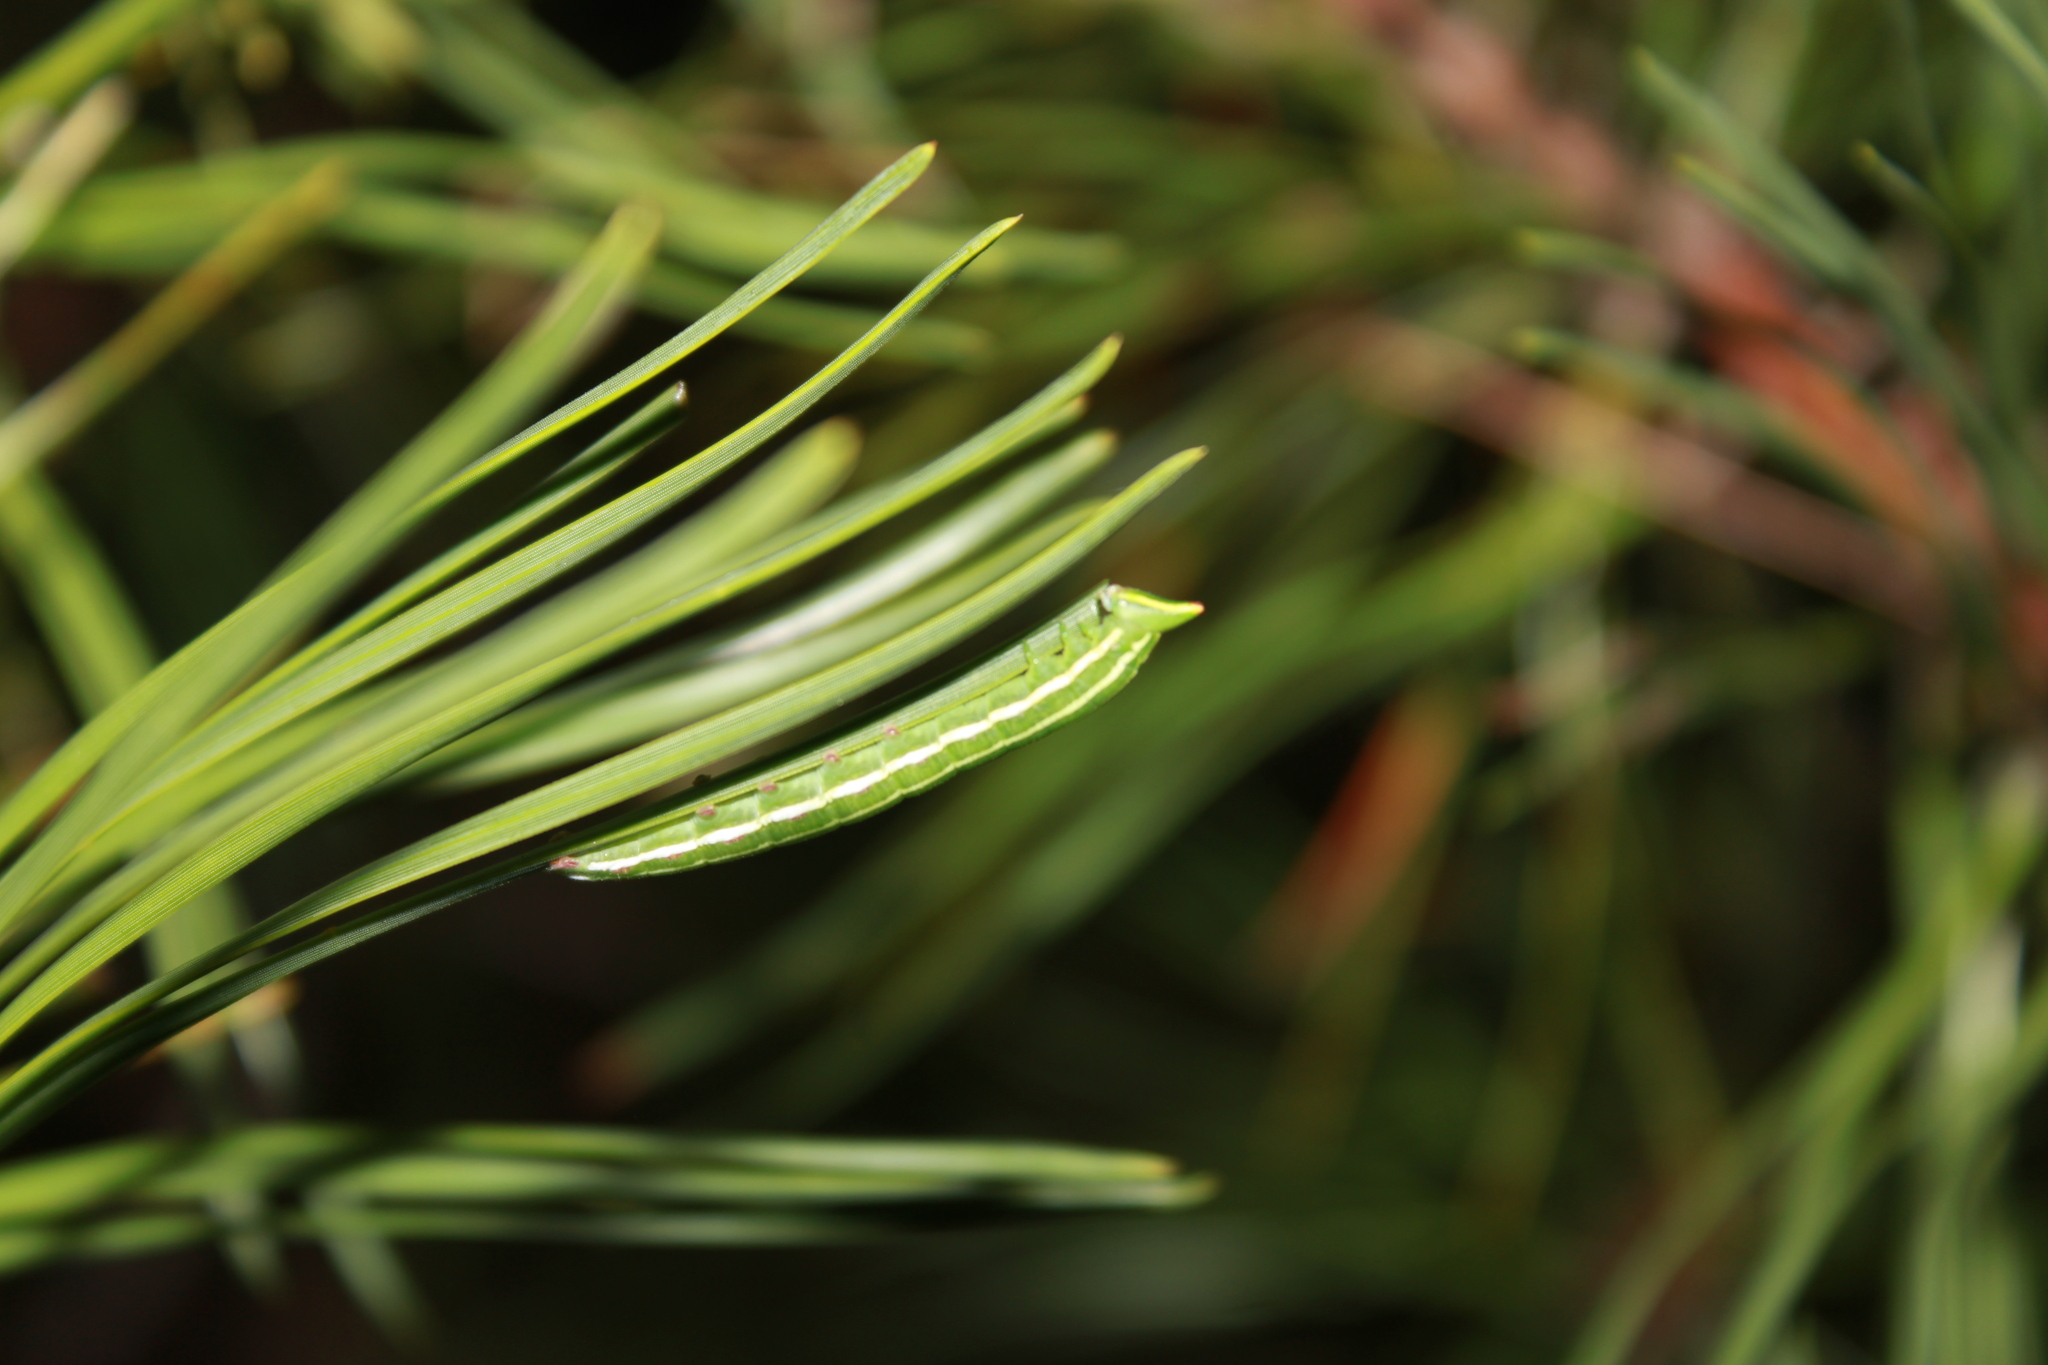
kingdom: Animalia
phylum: Arthropoda
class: Insecta
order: Lepidoptera
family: Sphingidae
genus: Lapara
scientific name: Lapara bombycoides
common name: Northern pine sphinx
